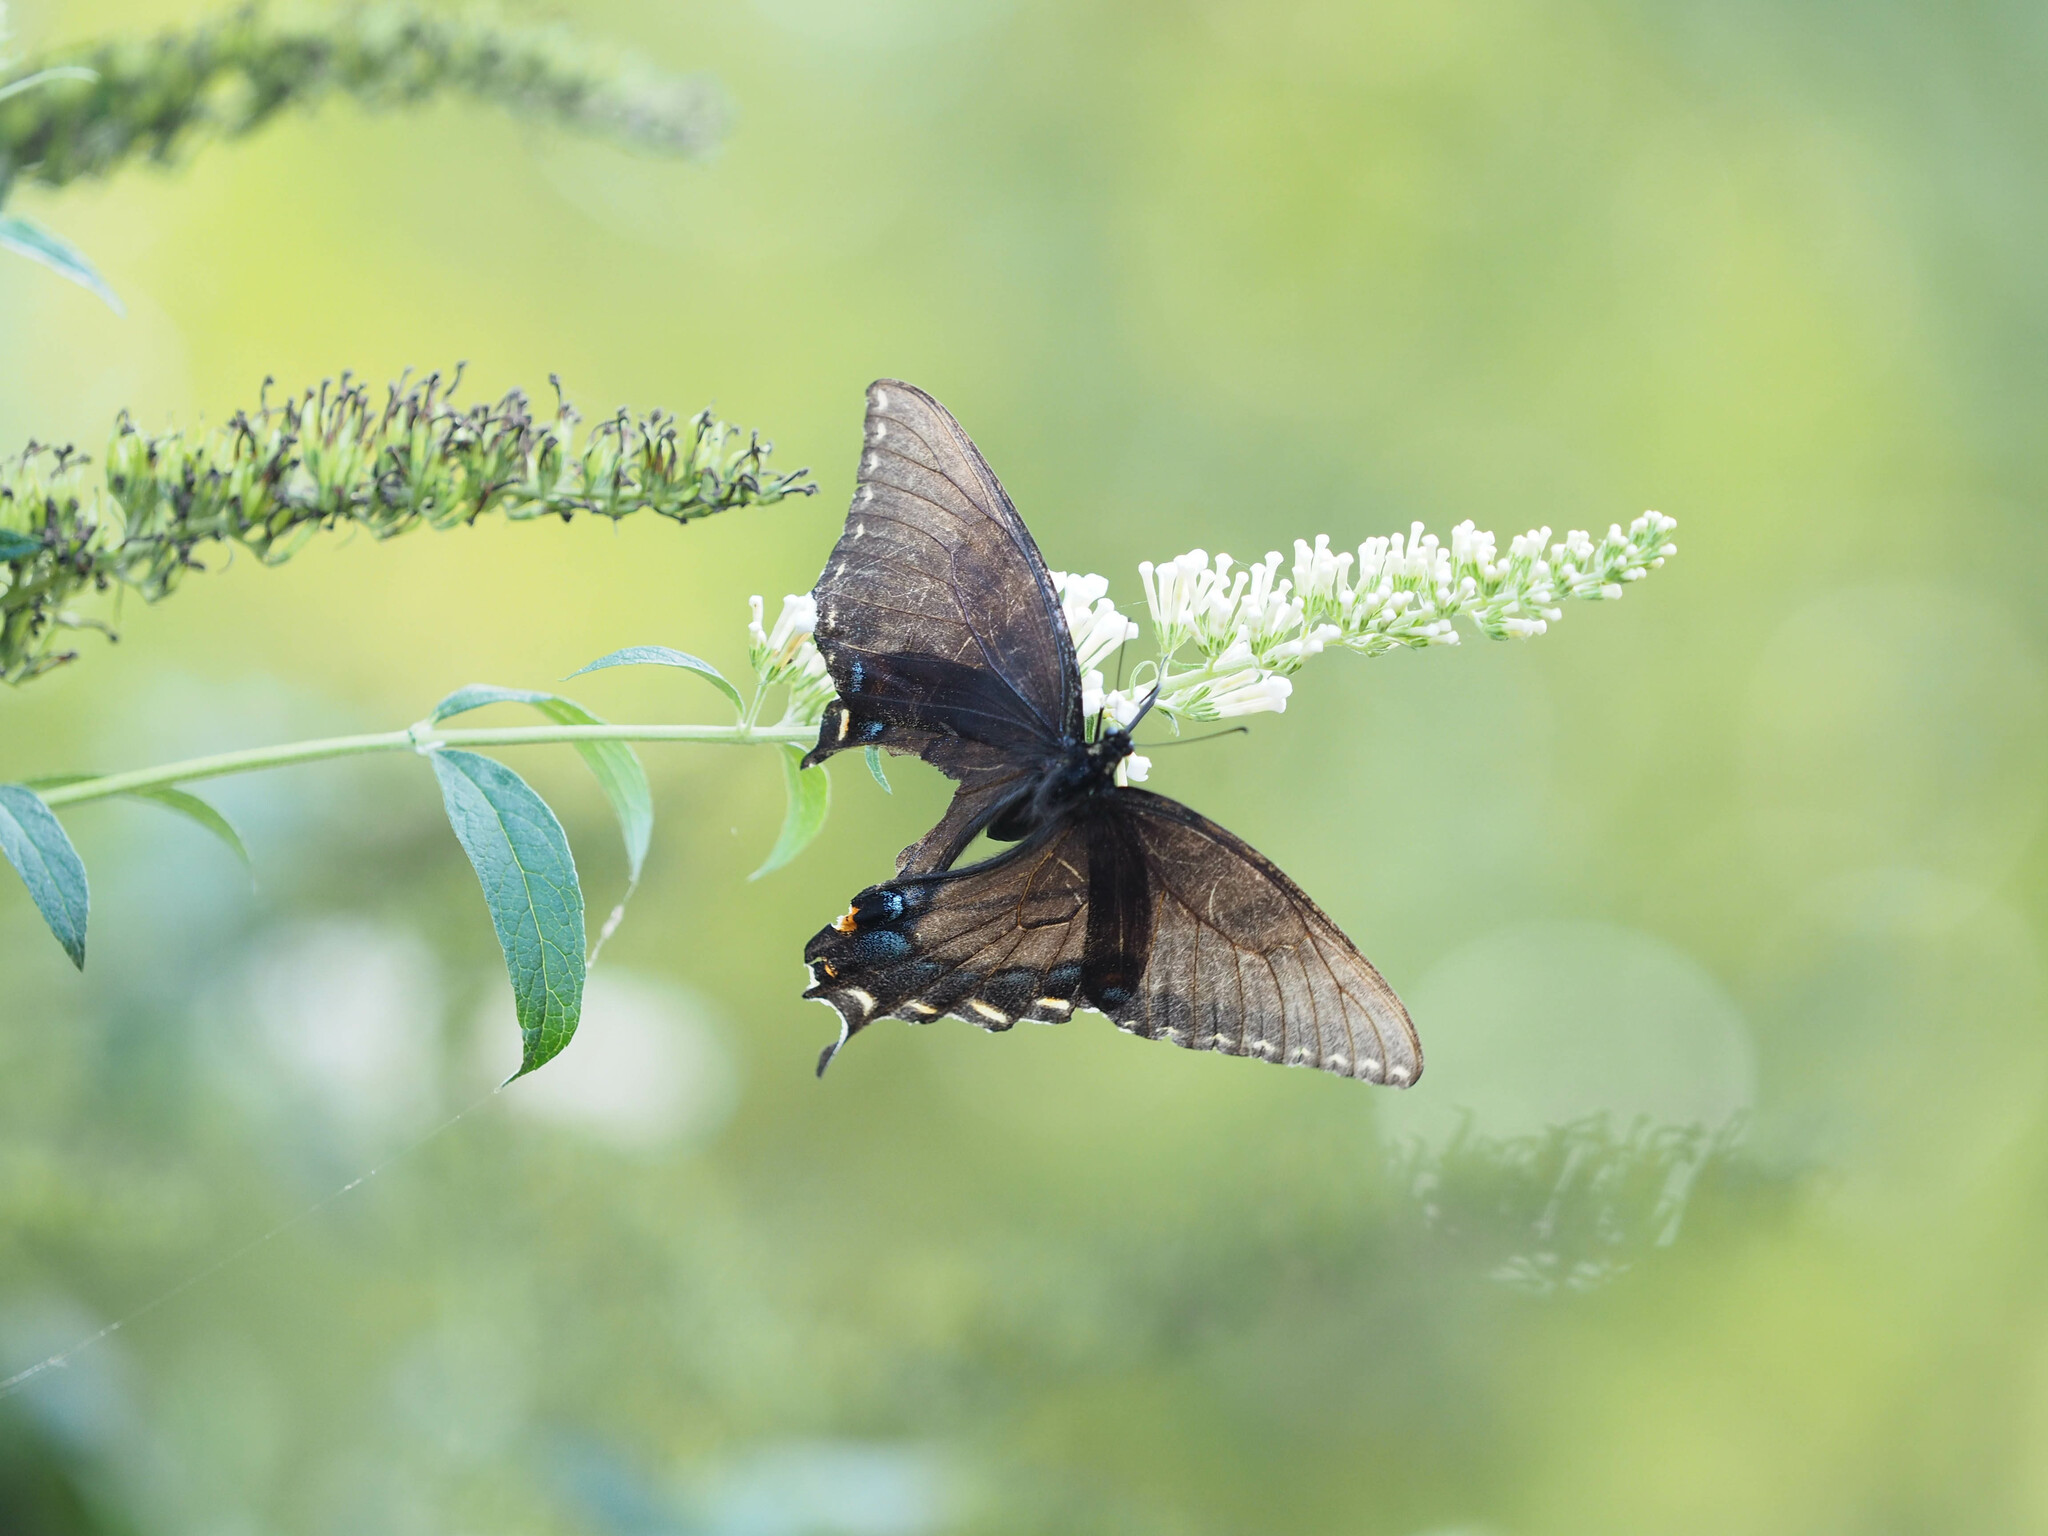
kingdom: Animalia
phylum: Arthropoda
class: Insecta
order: Lepidoptera
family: Papilionidae
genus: Papilio
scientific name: Papilio glaucus
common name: Tiger swallowtail
